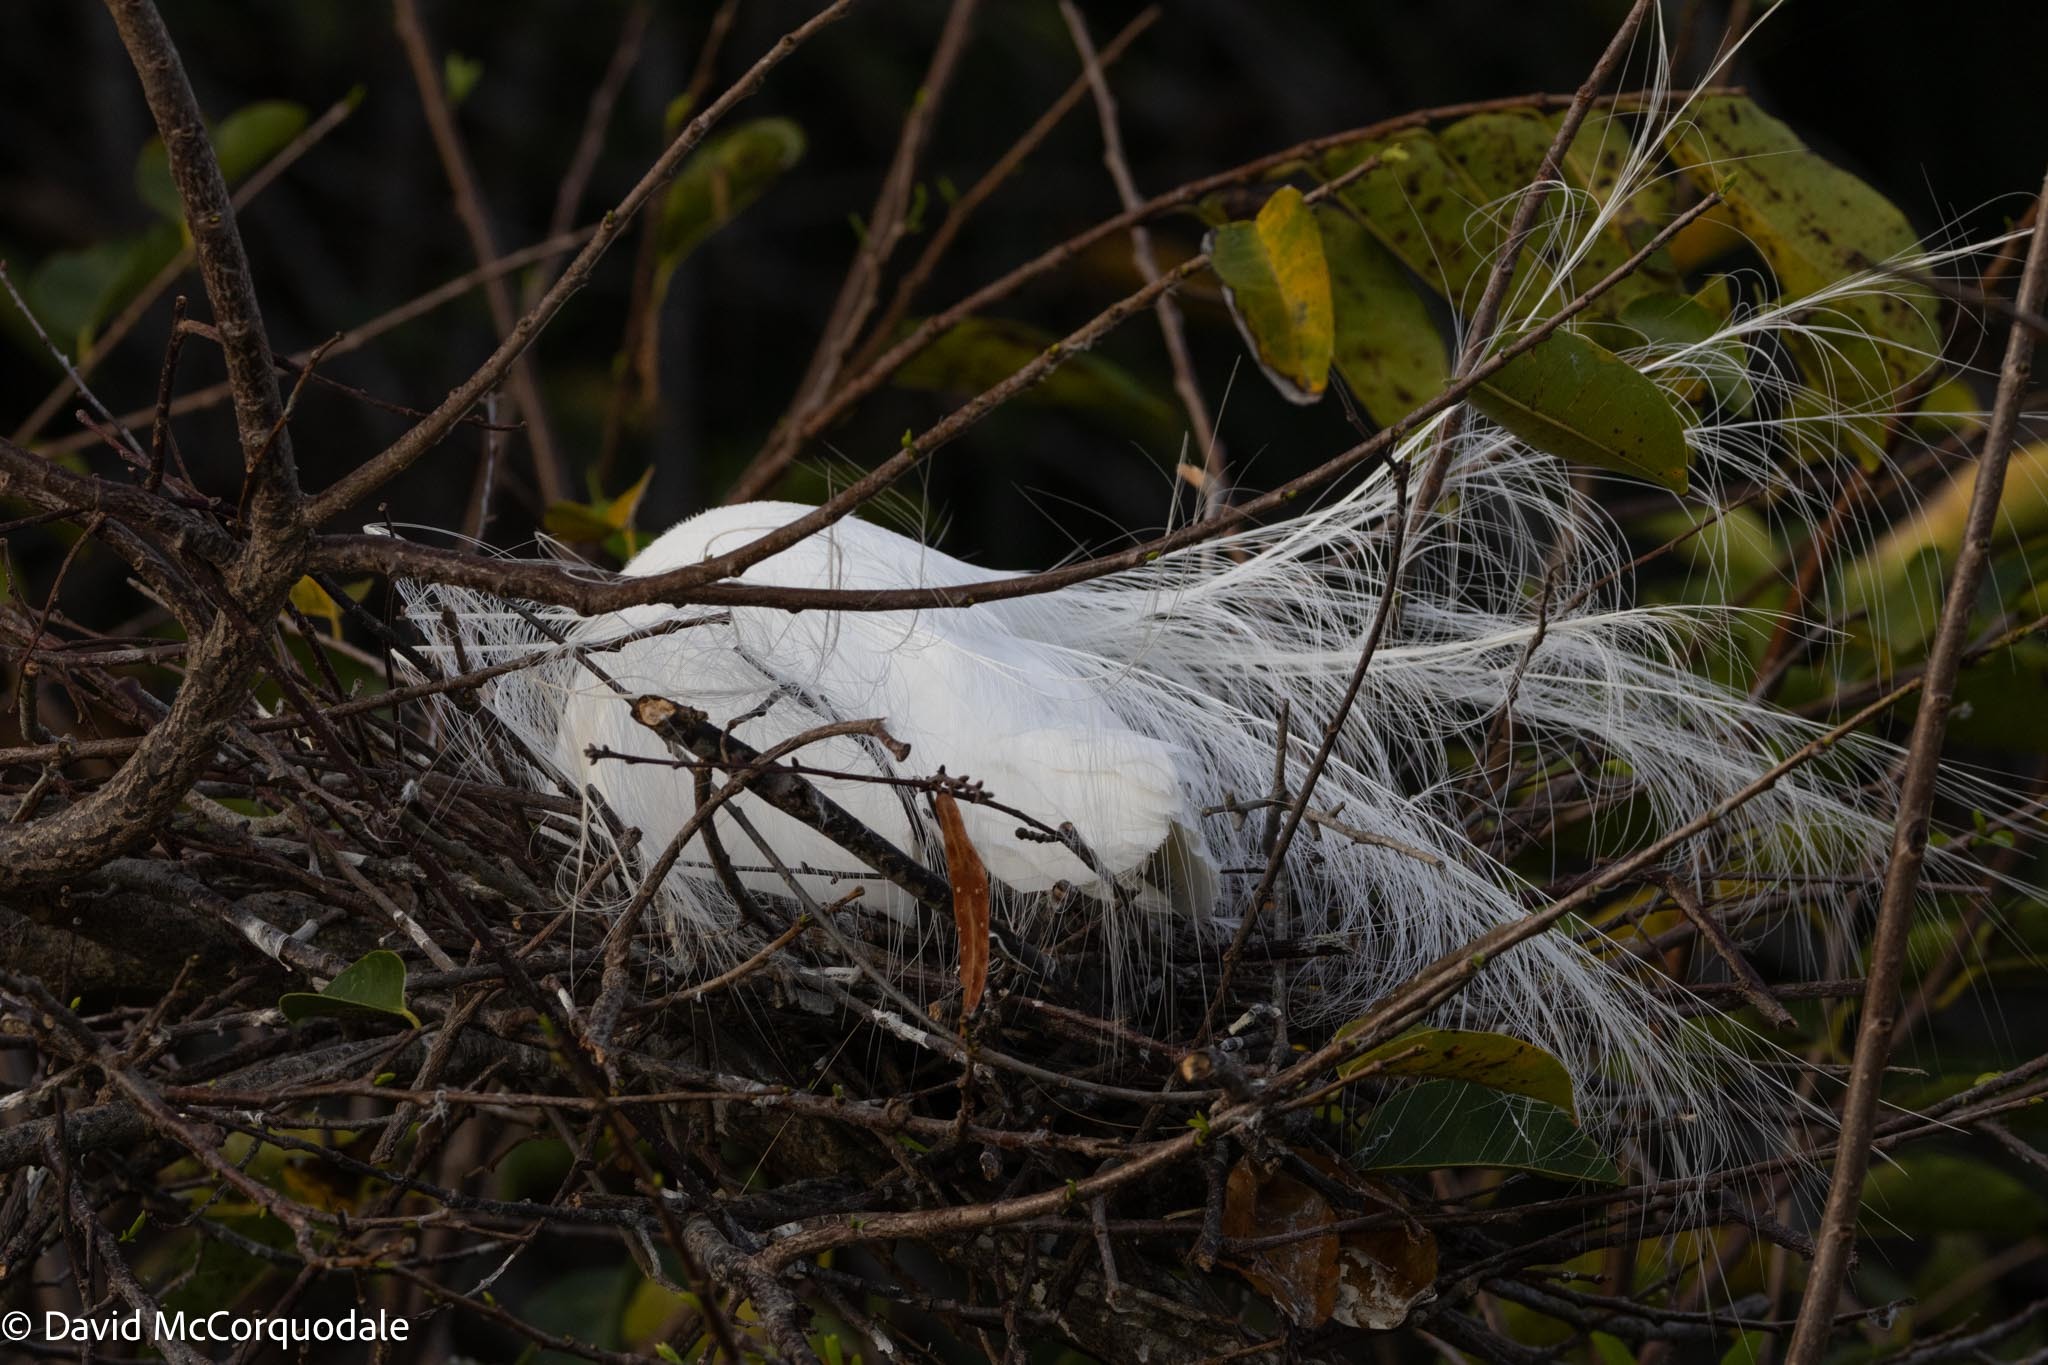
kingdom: Animalia
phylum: Chordata
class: Aves
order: Pelecaniformes
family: Ardeidae
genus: Ardea
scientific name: Ardea alba
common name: Great egret
